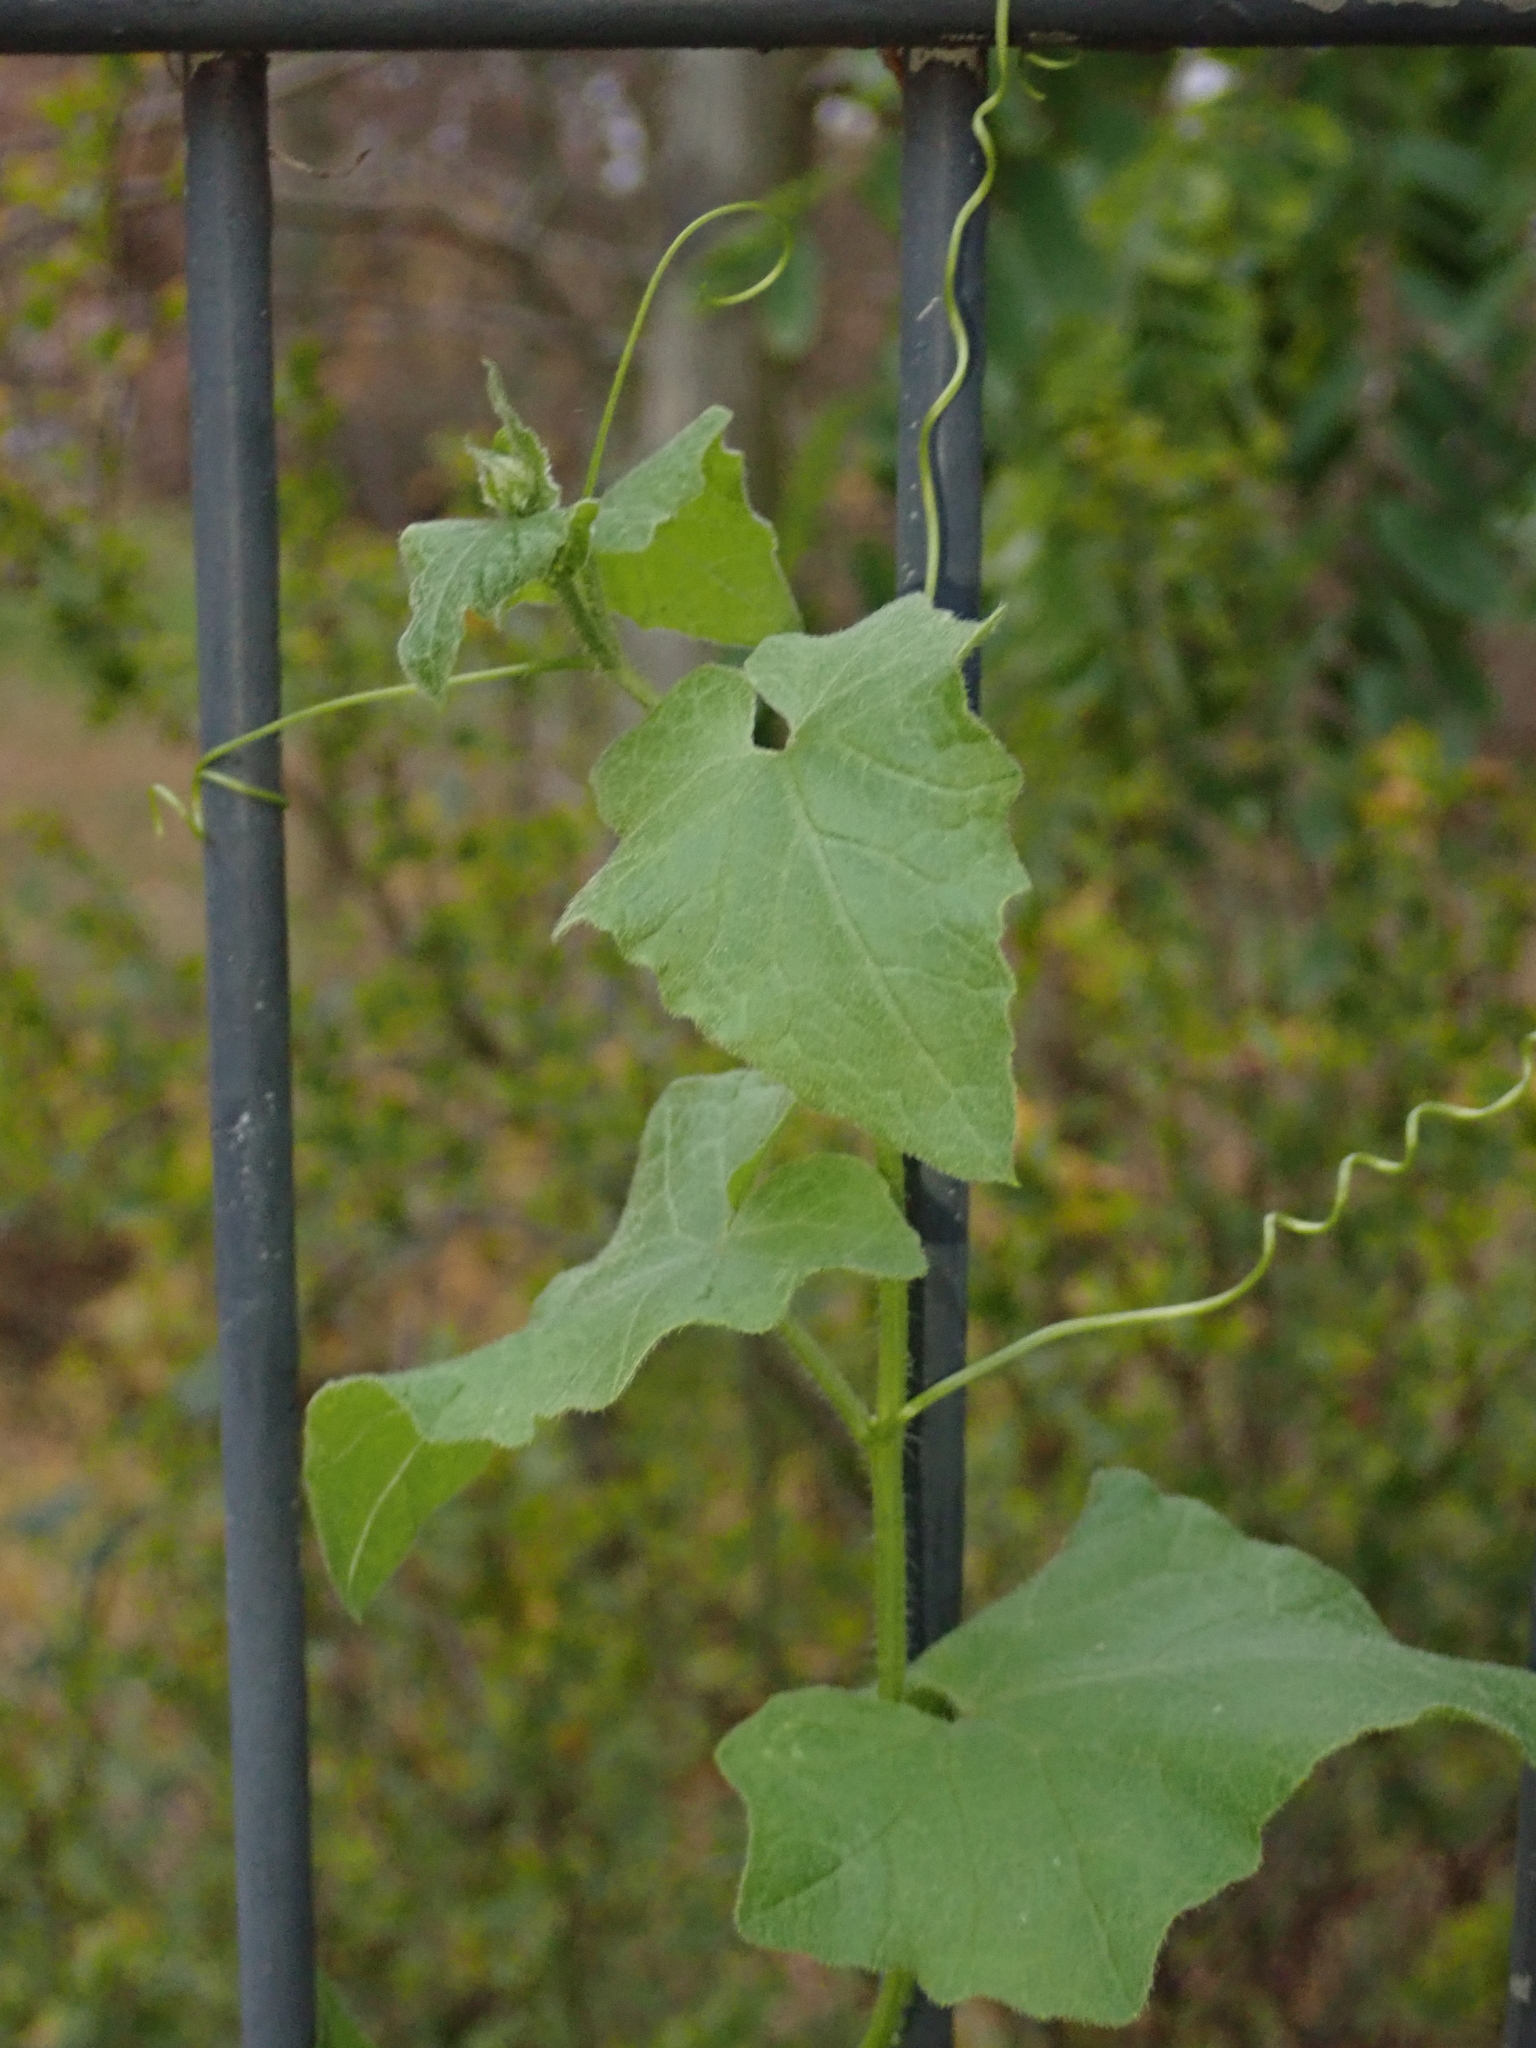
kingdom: Plantae
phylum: Tracheophyta
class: Magnoliopsida
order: Cucurbitales
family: Cucurbitaceae
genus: Bryonia
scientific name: Bryonia cretica
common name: Cretan bryony
